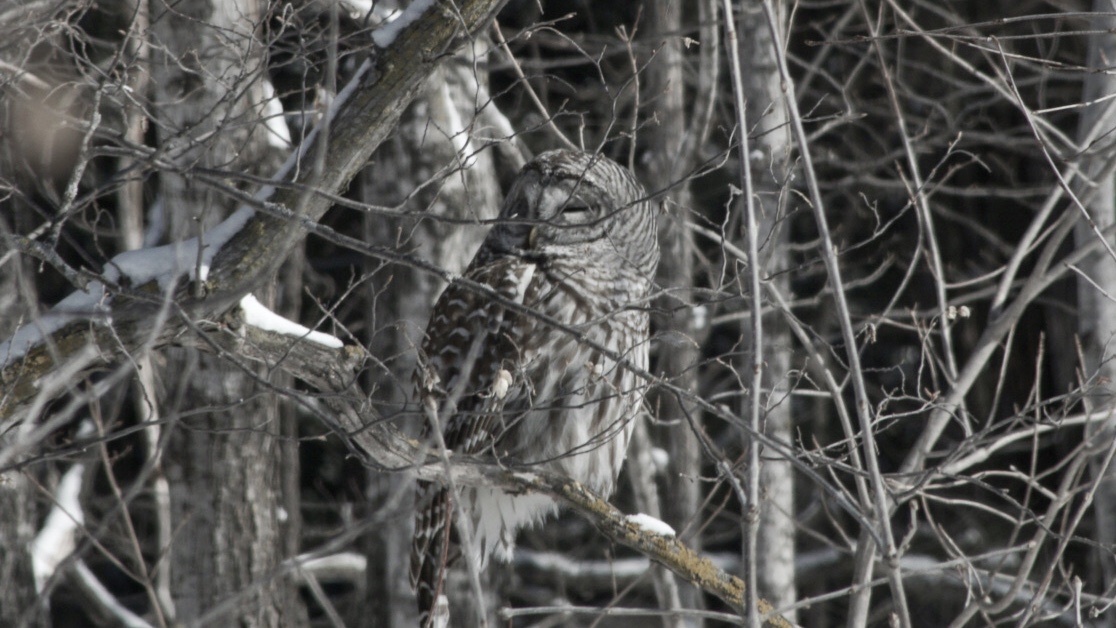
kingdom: Animalia
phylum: Chordata
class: Aves
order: Strigiformes
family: Strigidae
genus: Strix
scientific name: Strix varia
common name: Barred owl
